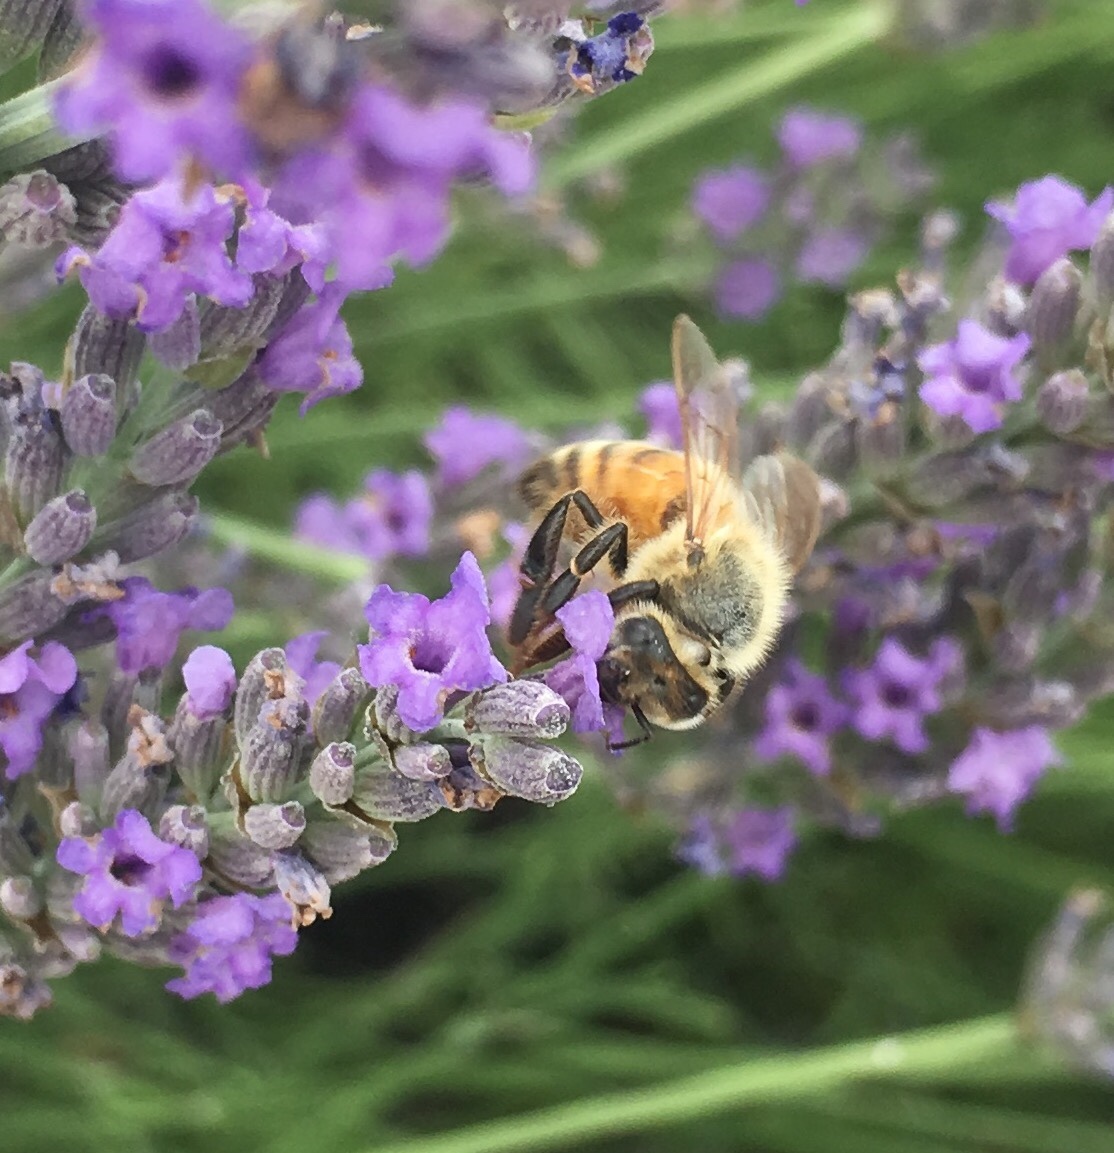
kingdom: Animalia
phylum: Arthropoda
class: Insecta
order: Hymenoptera
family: Apidae
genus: Apis
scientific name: Apis mellifera
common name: Honey bee
